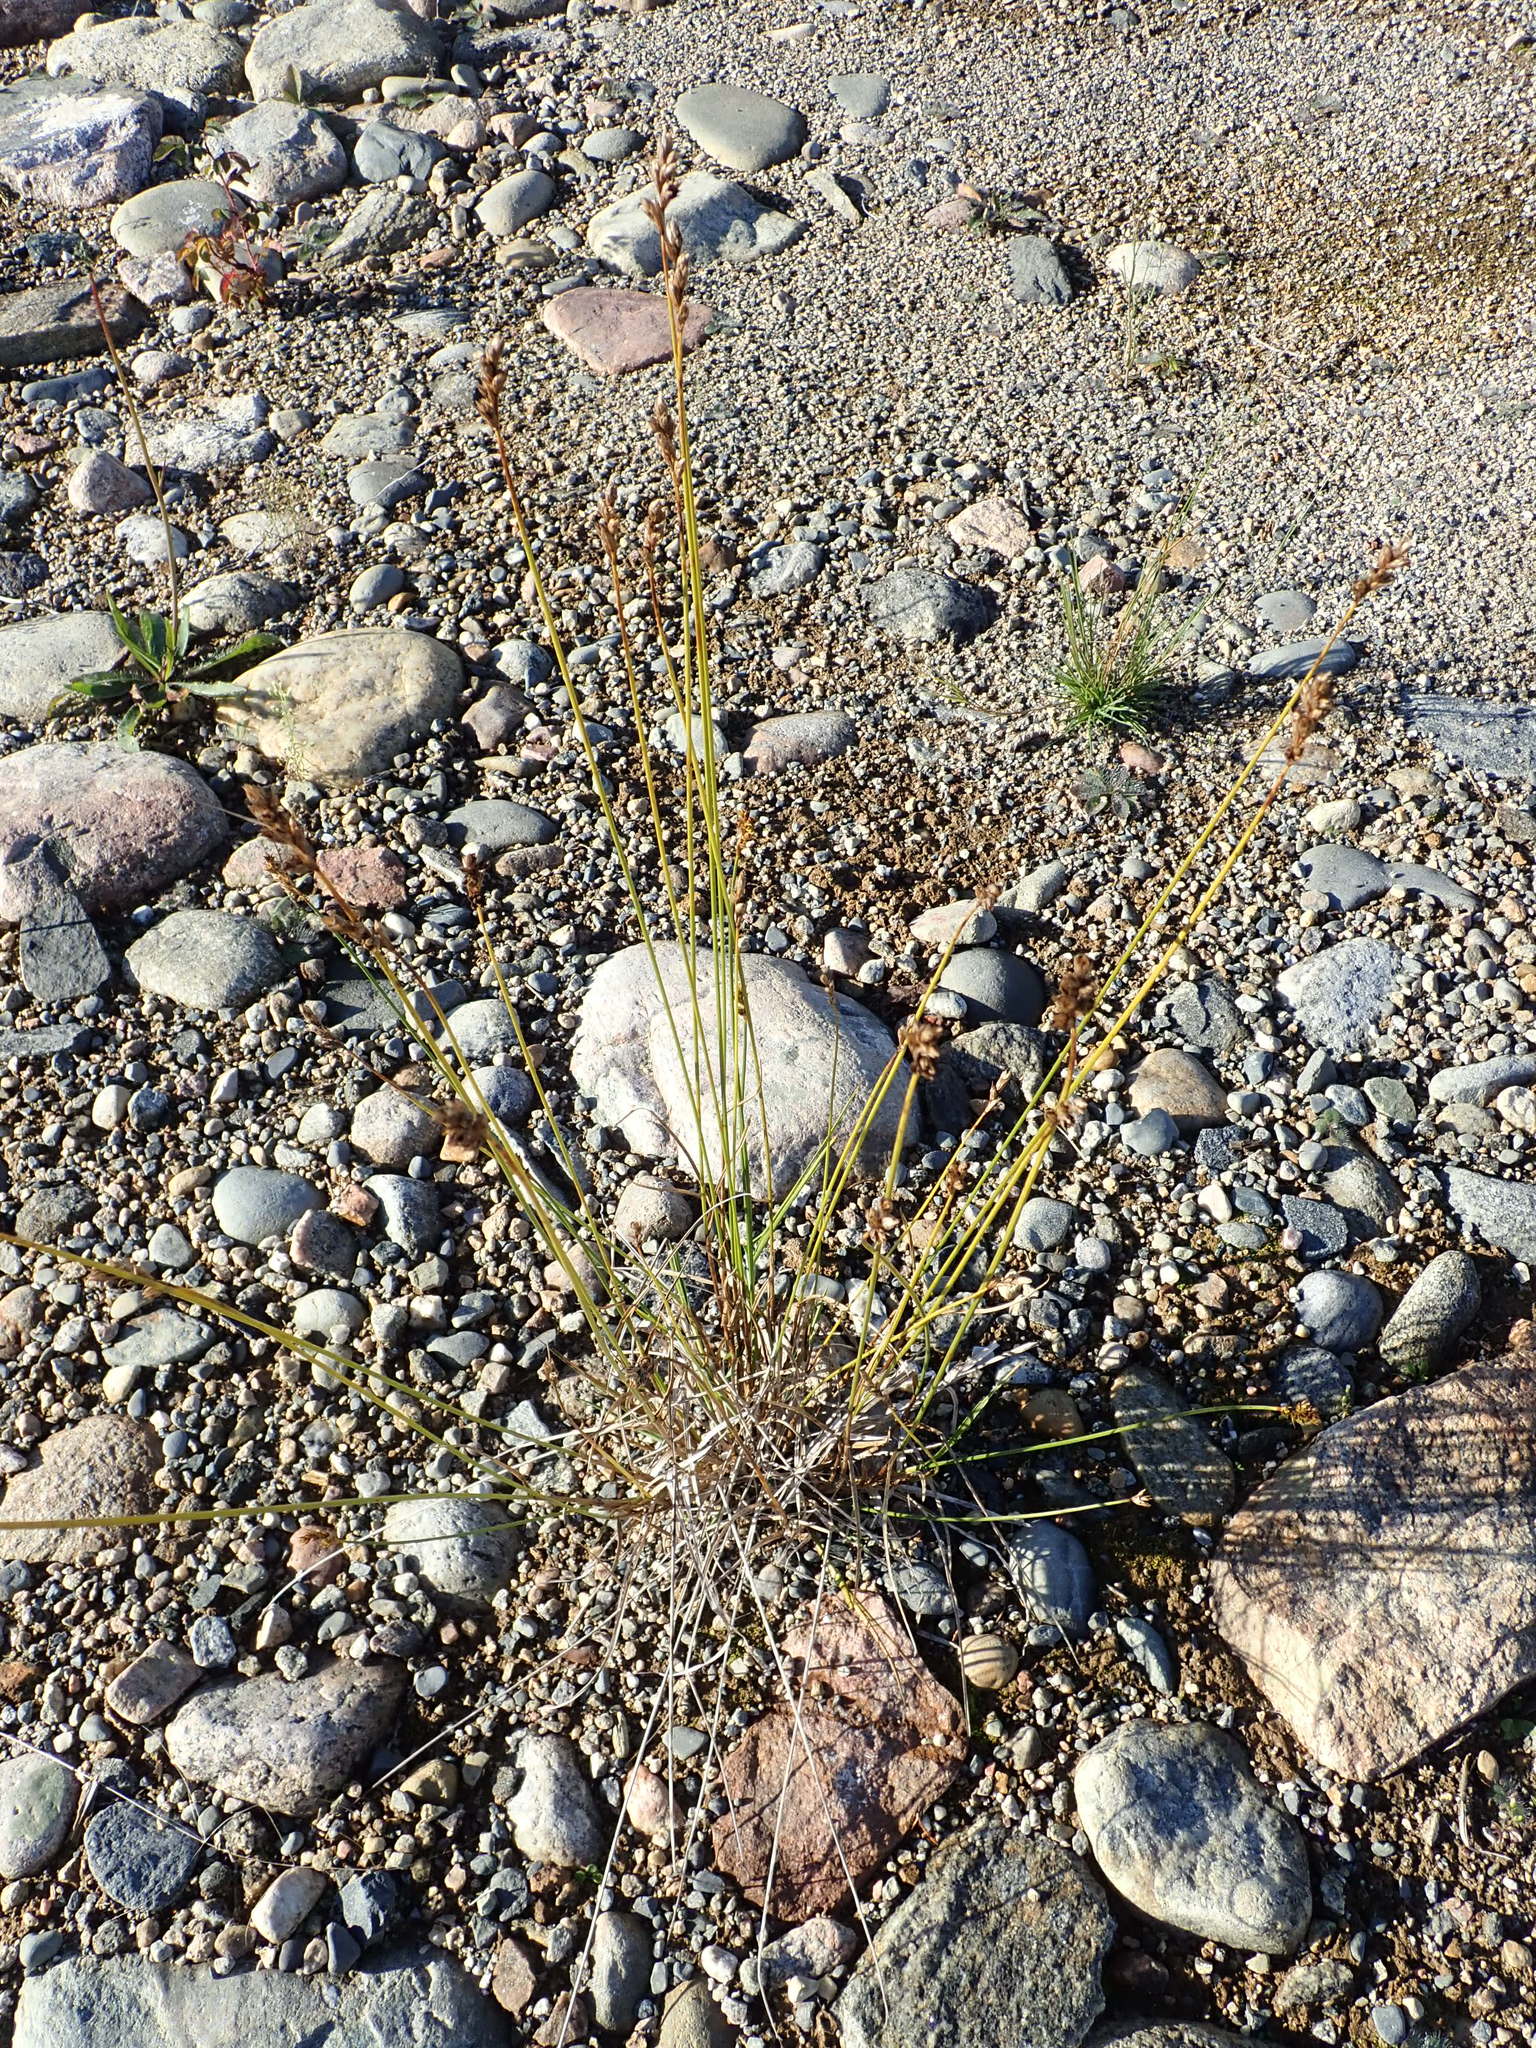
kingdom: Plantae
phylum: Tracheophyta
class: Liliopsida
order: Poales
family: Cyperaceae
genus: Carex
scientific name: Carex scoparia
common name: Broom sedge
